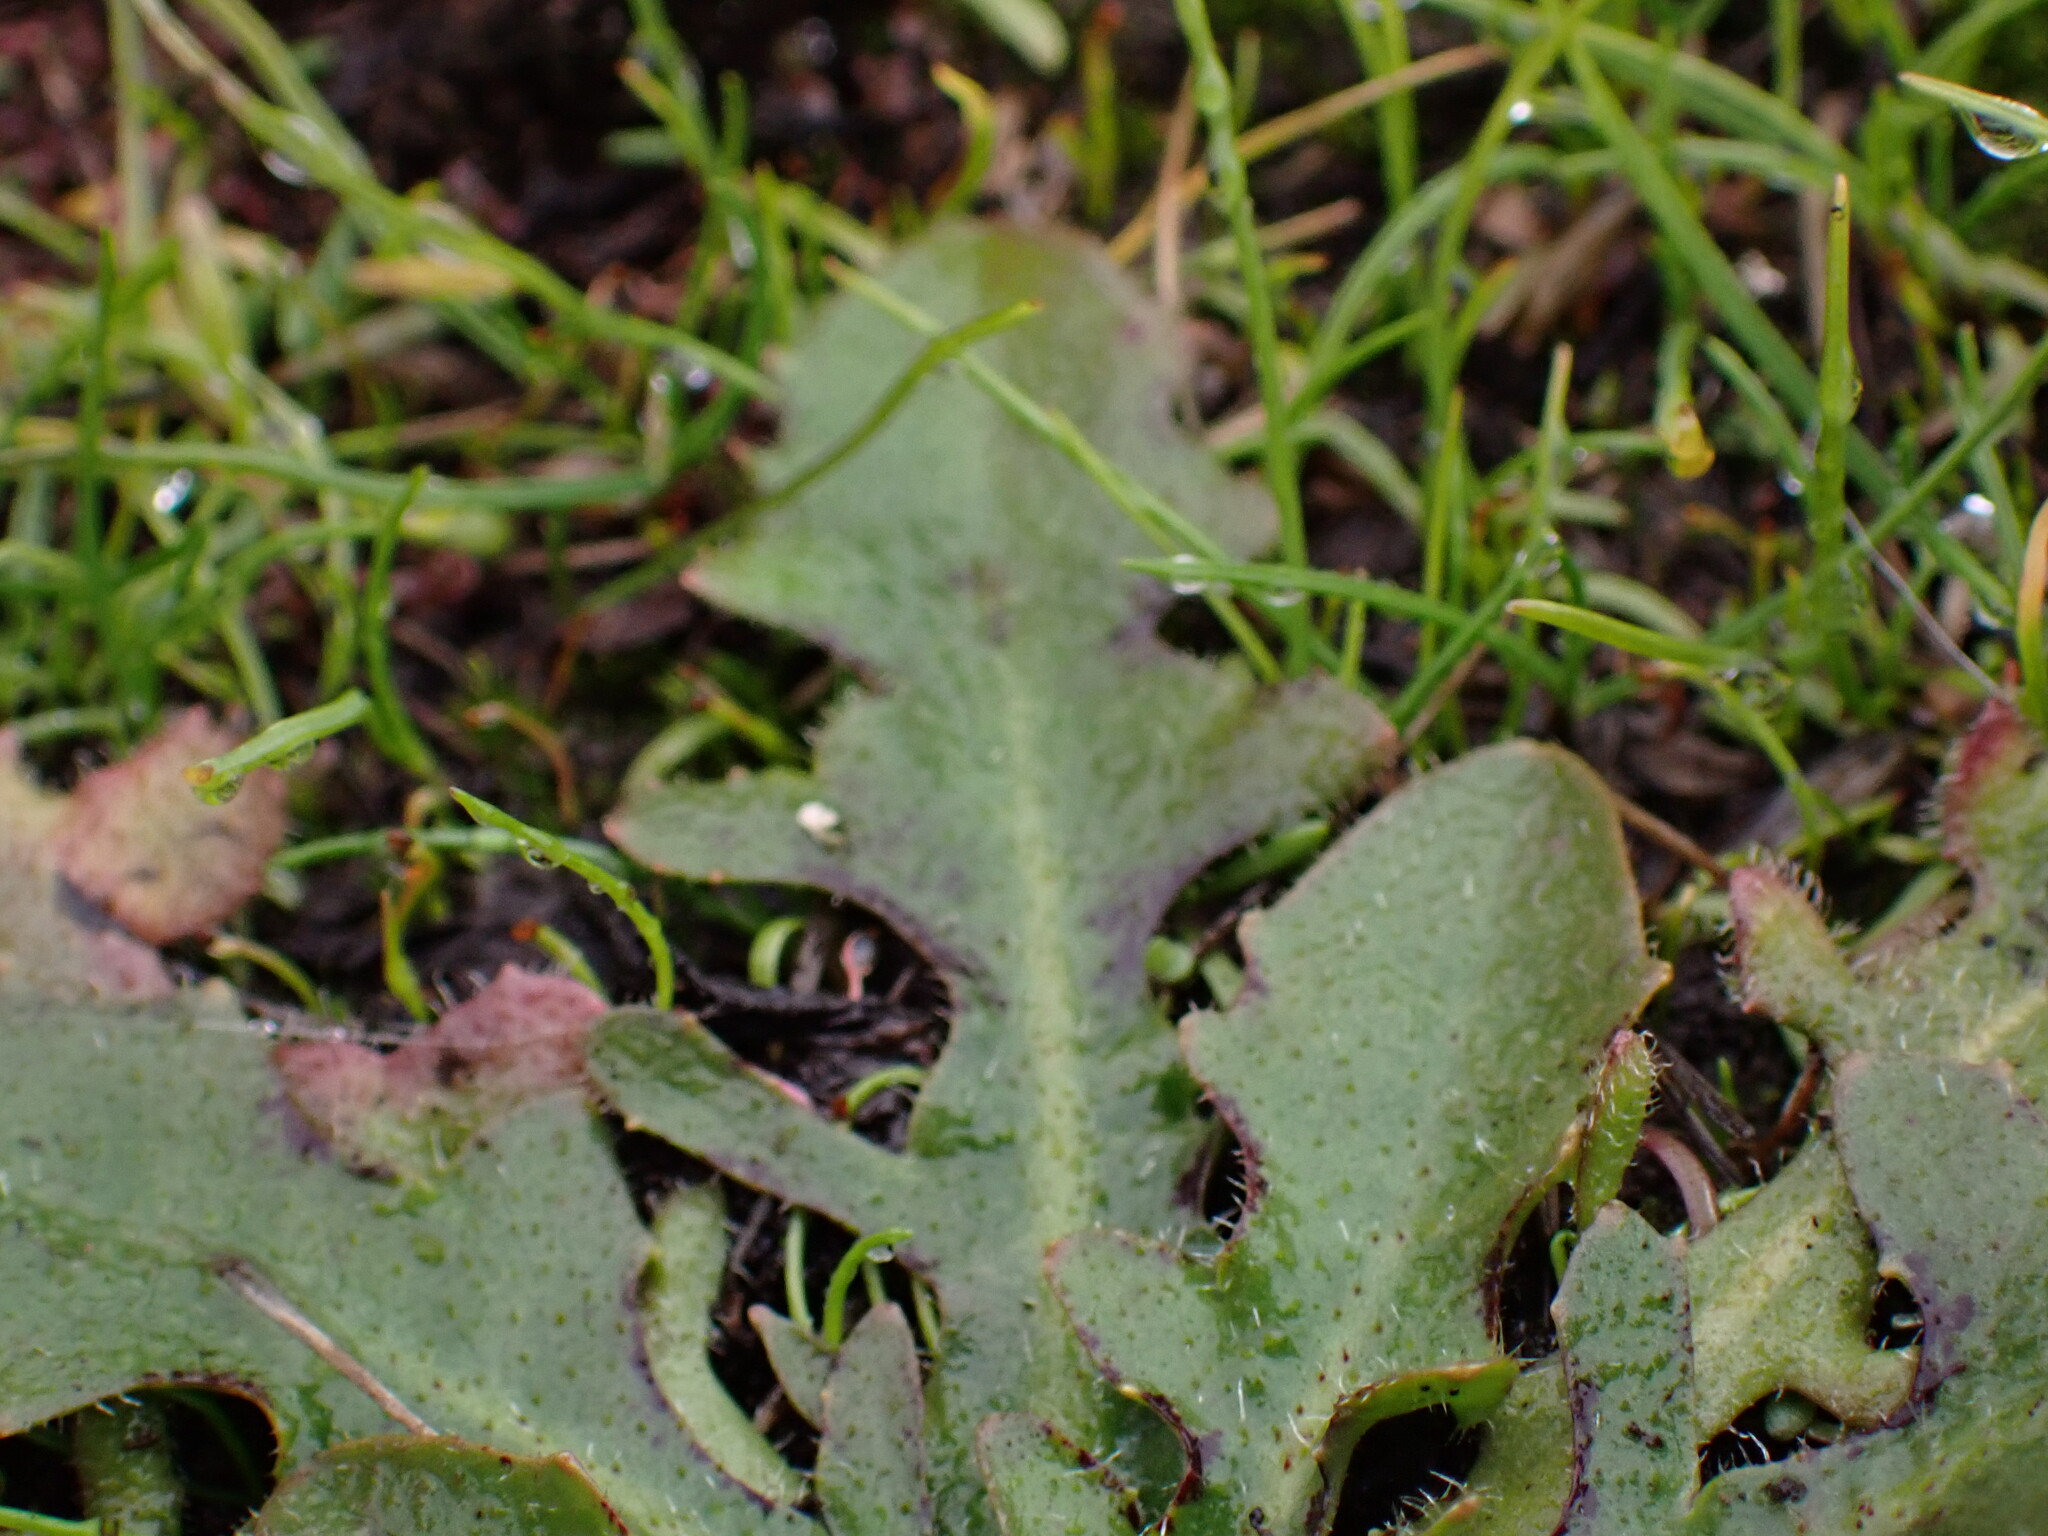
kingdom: Plantae
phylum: Tracheophyta
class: Magnoliopsida
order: Asterales
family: Asteraceae
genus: Hypochaeris
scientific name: Hypochaeris radicata
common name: Flatweed
